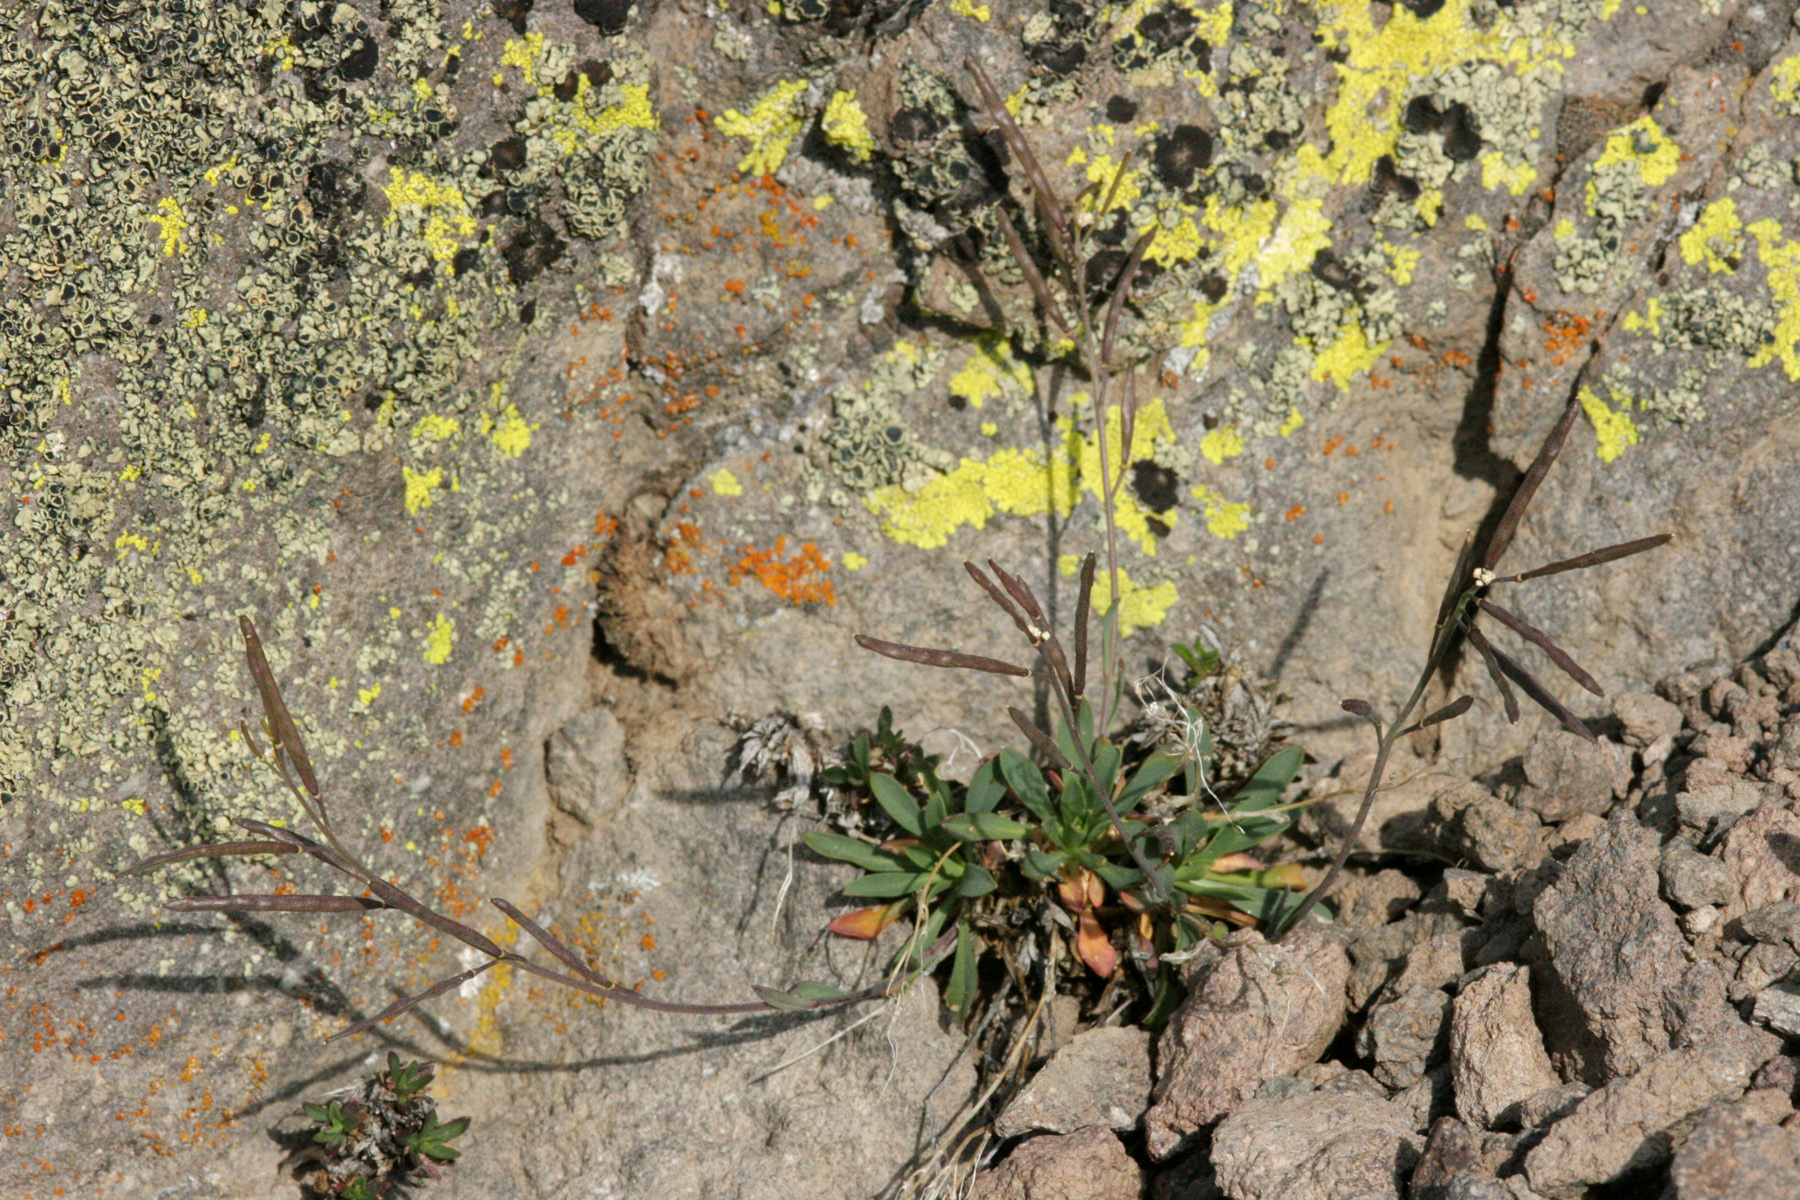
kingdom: Plantae
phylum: Tracheophyta
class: Magnoliopsida
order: Brassicales
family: Brassicaceae
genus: Boechera
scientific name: Boechera tiehmii
